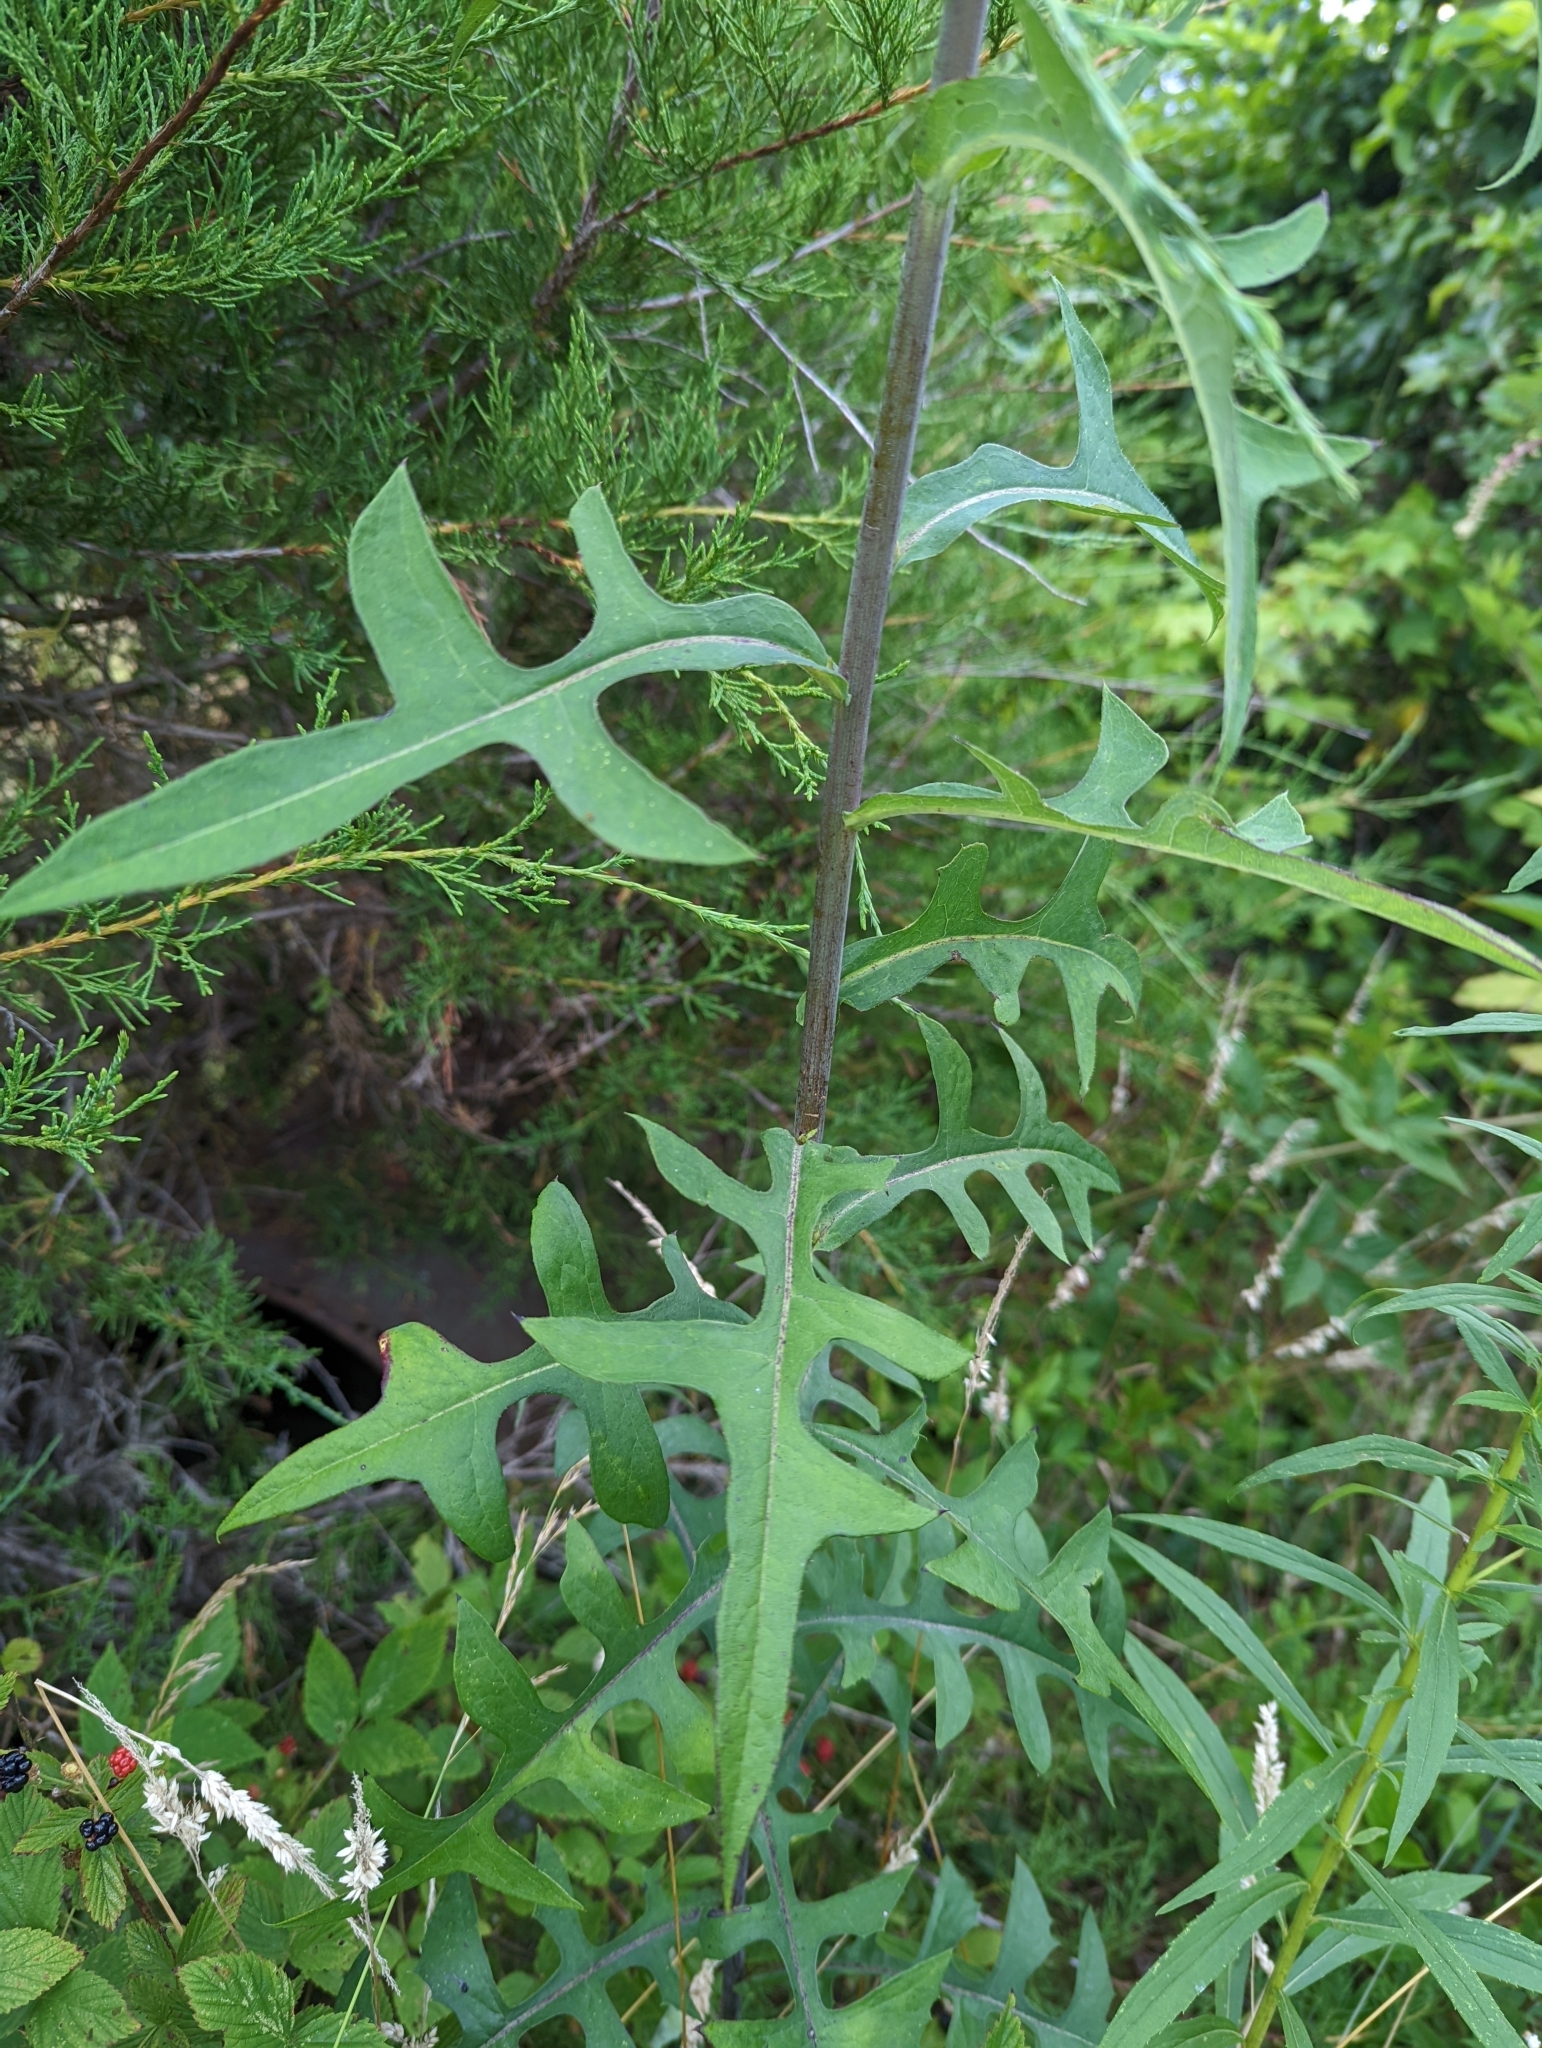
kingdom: Plantae
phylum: Tracheophyta
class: Magnoliopsida
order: Asterales
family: Asteraceae
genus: Lactuca
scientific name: Lactuca canadensis
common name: Canada lettuce
